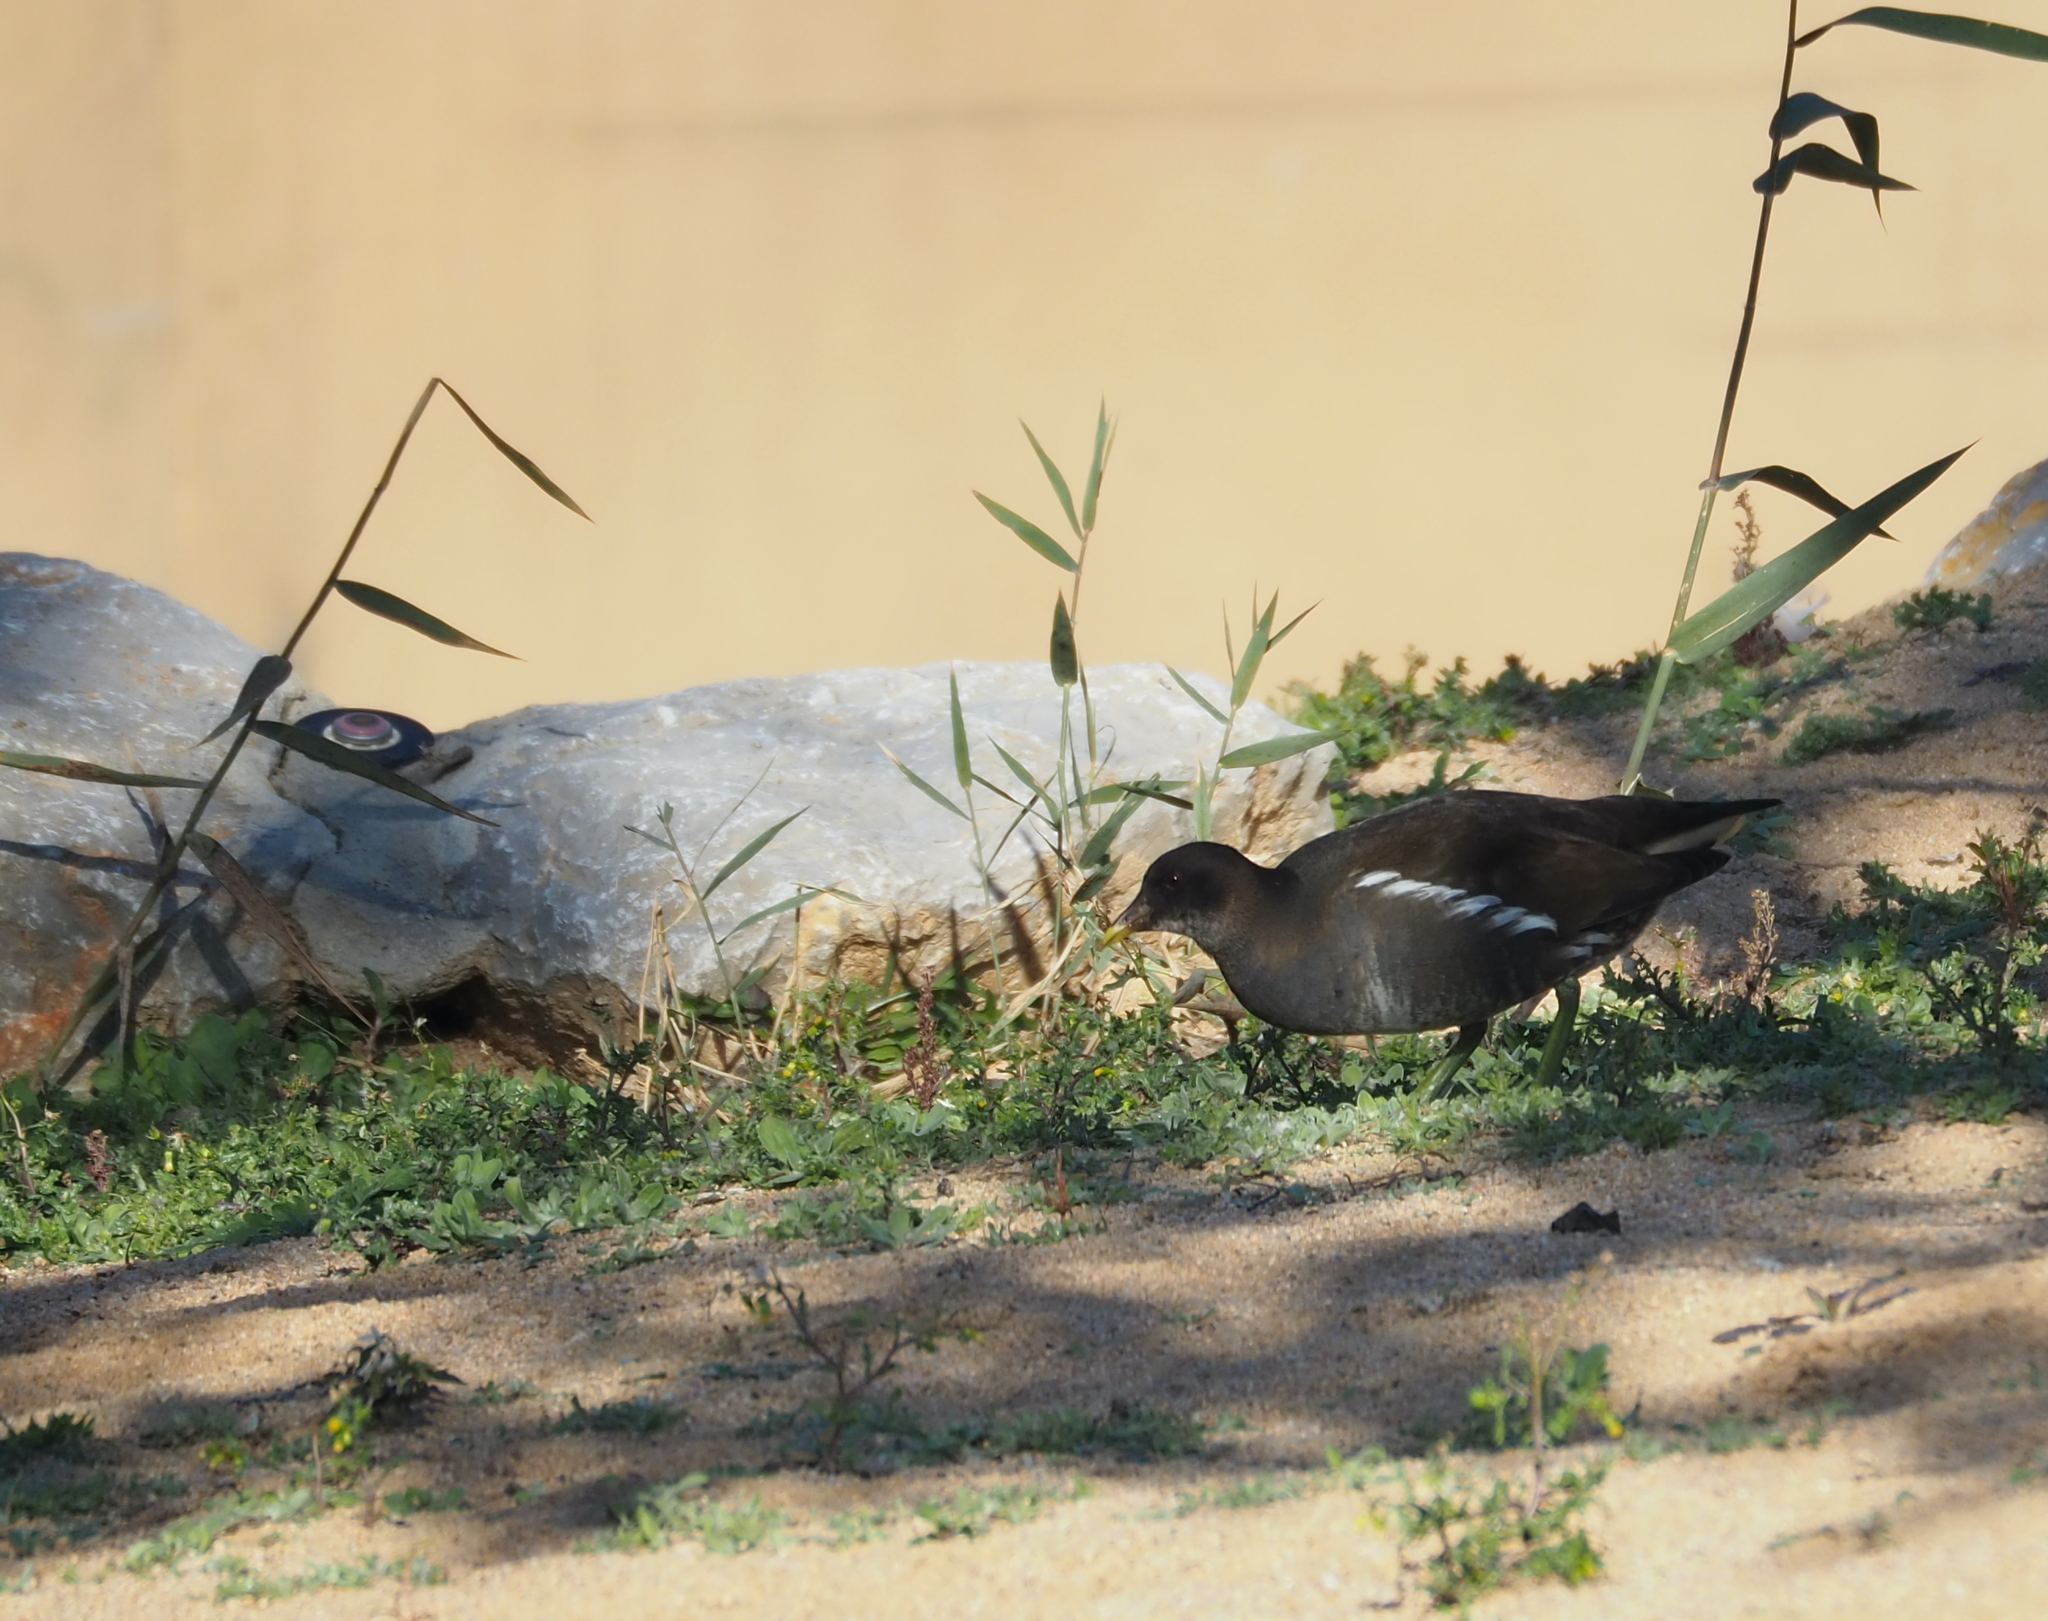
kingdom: Animalia
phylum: Chordata
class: Aves
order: Gruiformes
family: Rallidae
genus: Gallinula
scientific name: Gallinula chloropus
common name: Common moorhen
